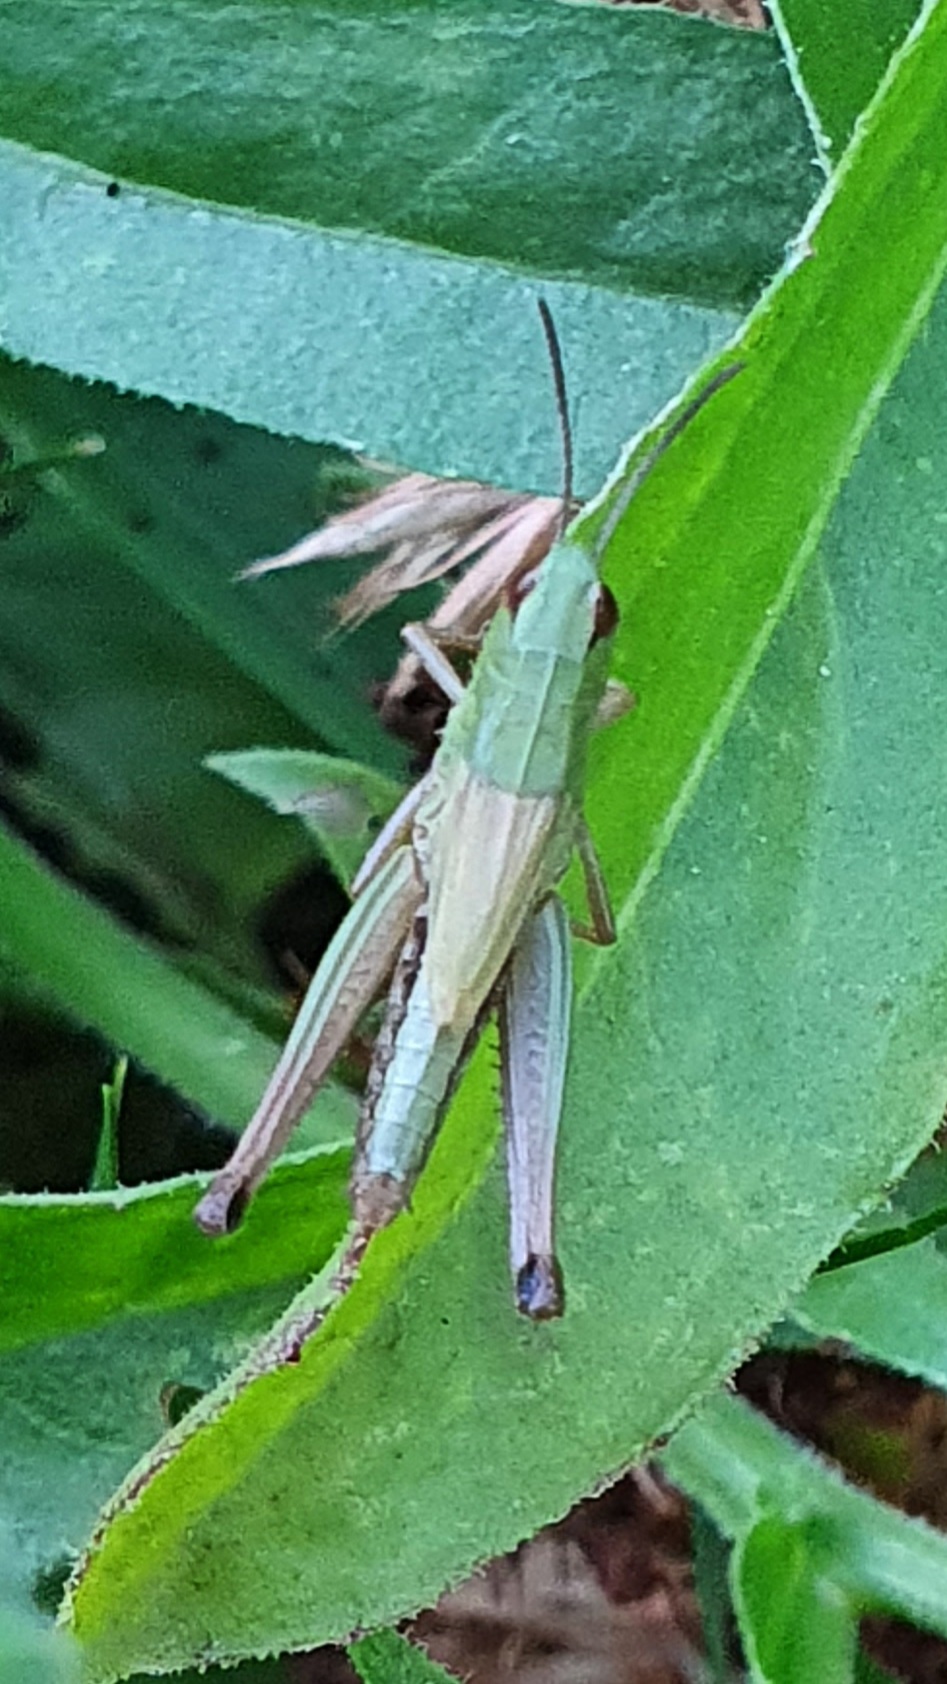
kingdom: Animalia
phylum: Arthropoda
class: Insecta
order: Orthoptera
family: Acrididae
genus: Pseudochorthippus
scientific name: Pseudochorthippus parallelus
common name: Meadow grasshopper
